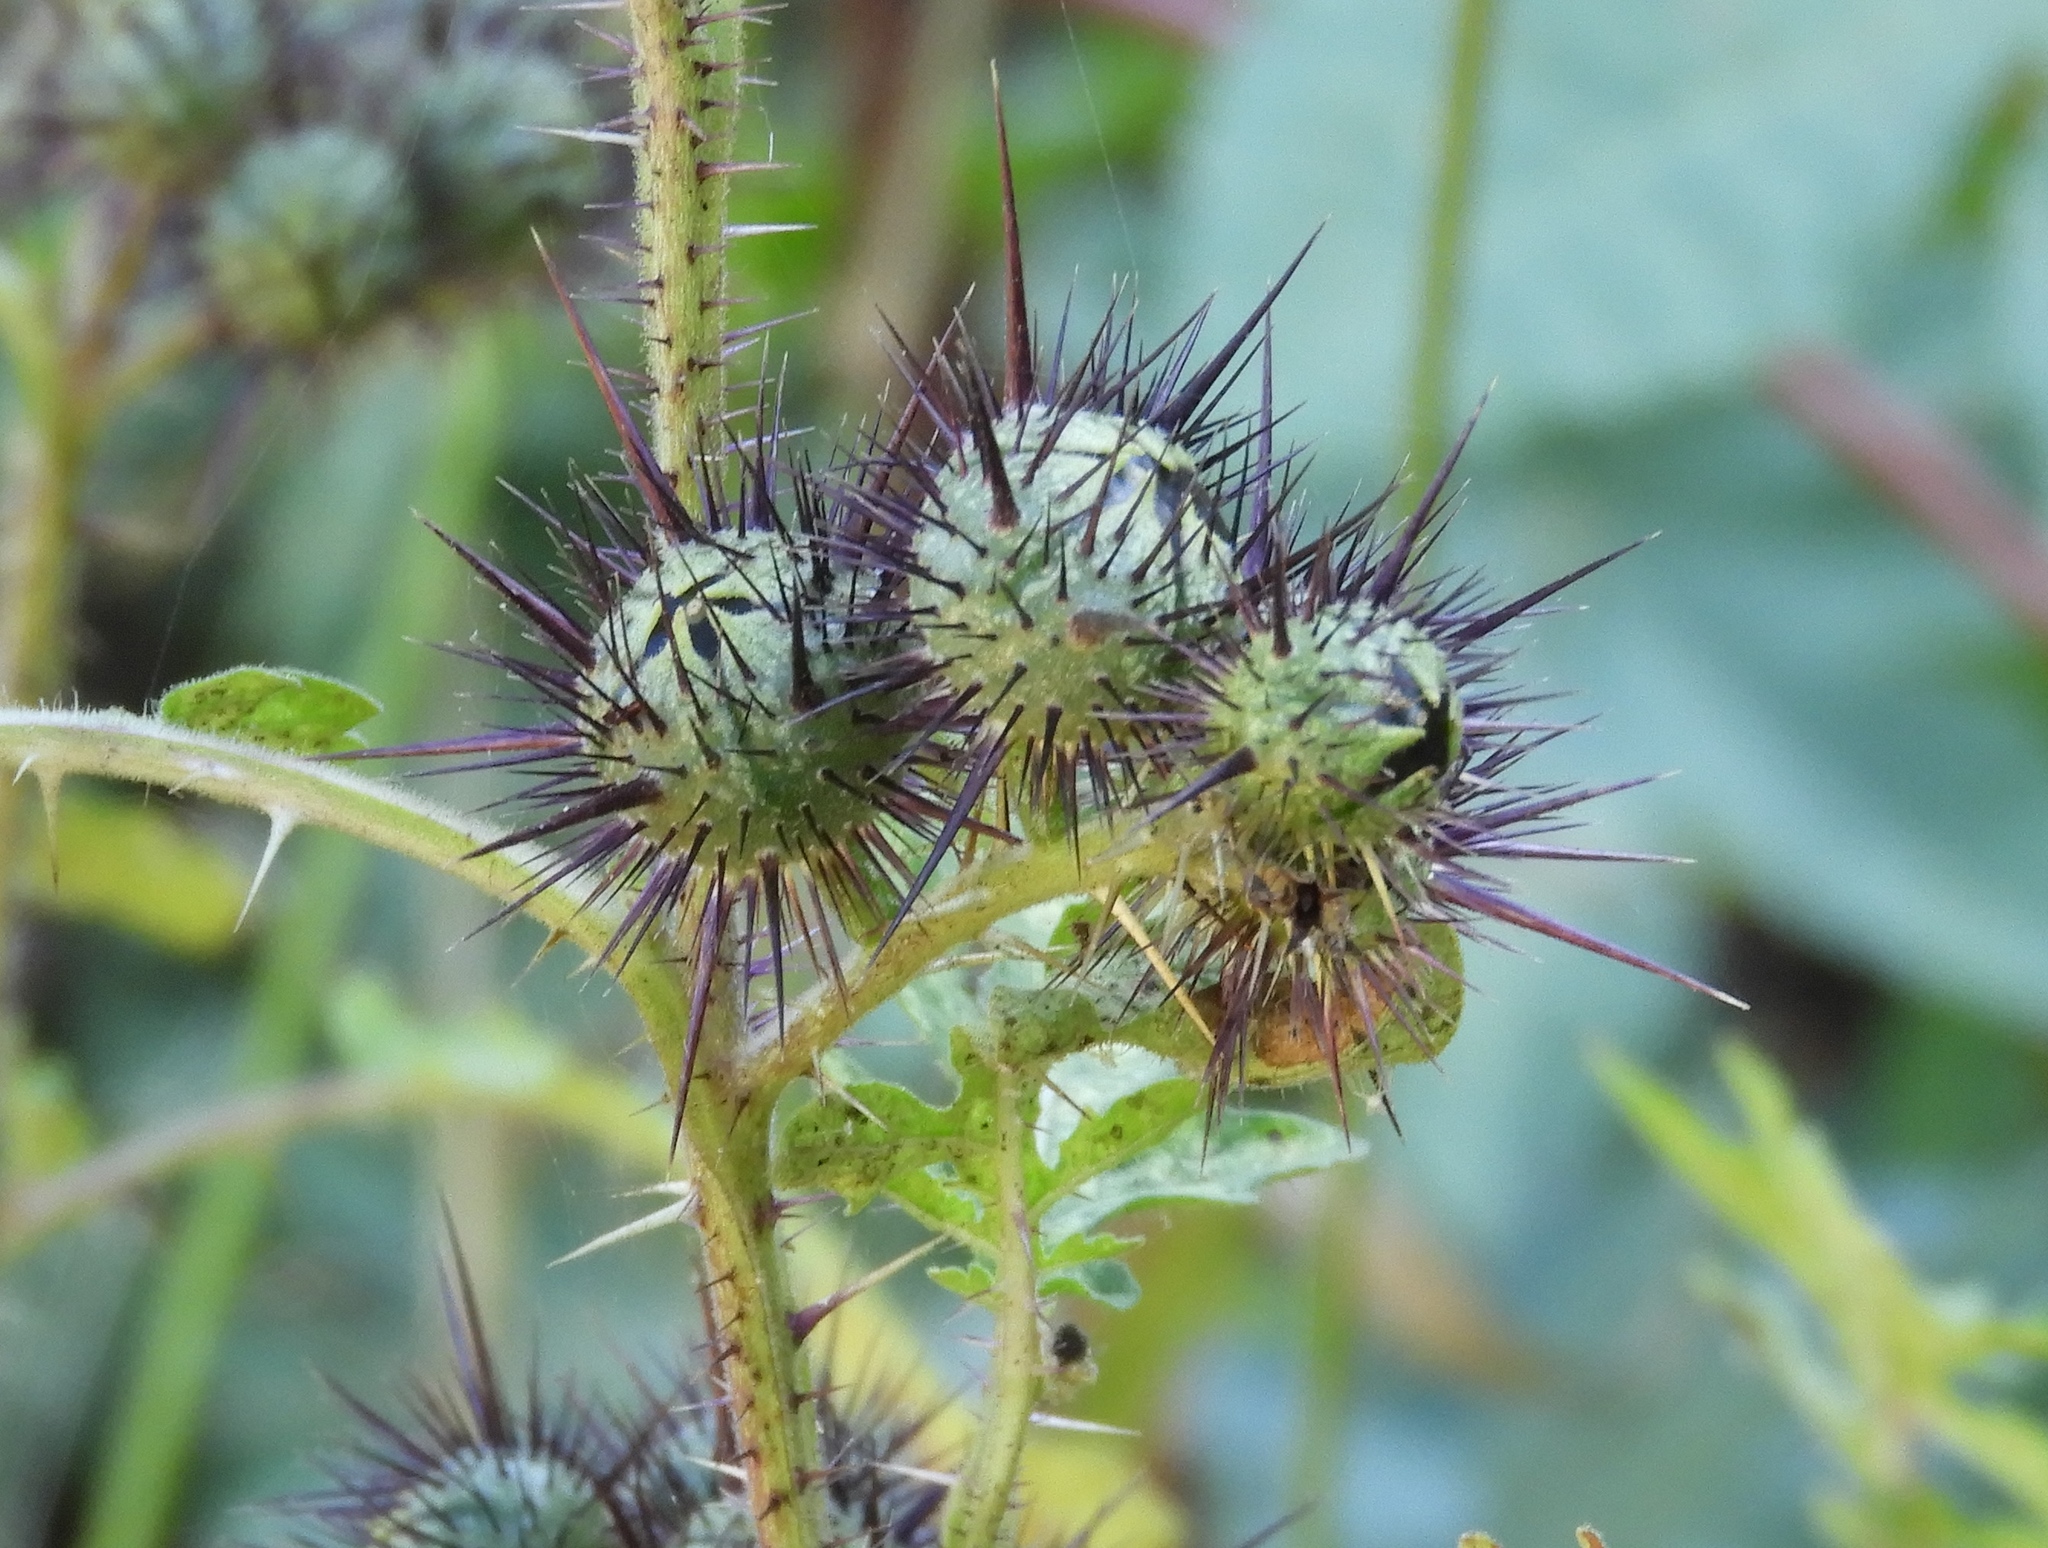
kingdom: Plantae
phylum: Tracheophyta
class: Magnoliopsida
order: Solanales
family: Solanaceae
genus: Solanum
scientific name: Solanum grayi
